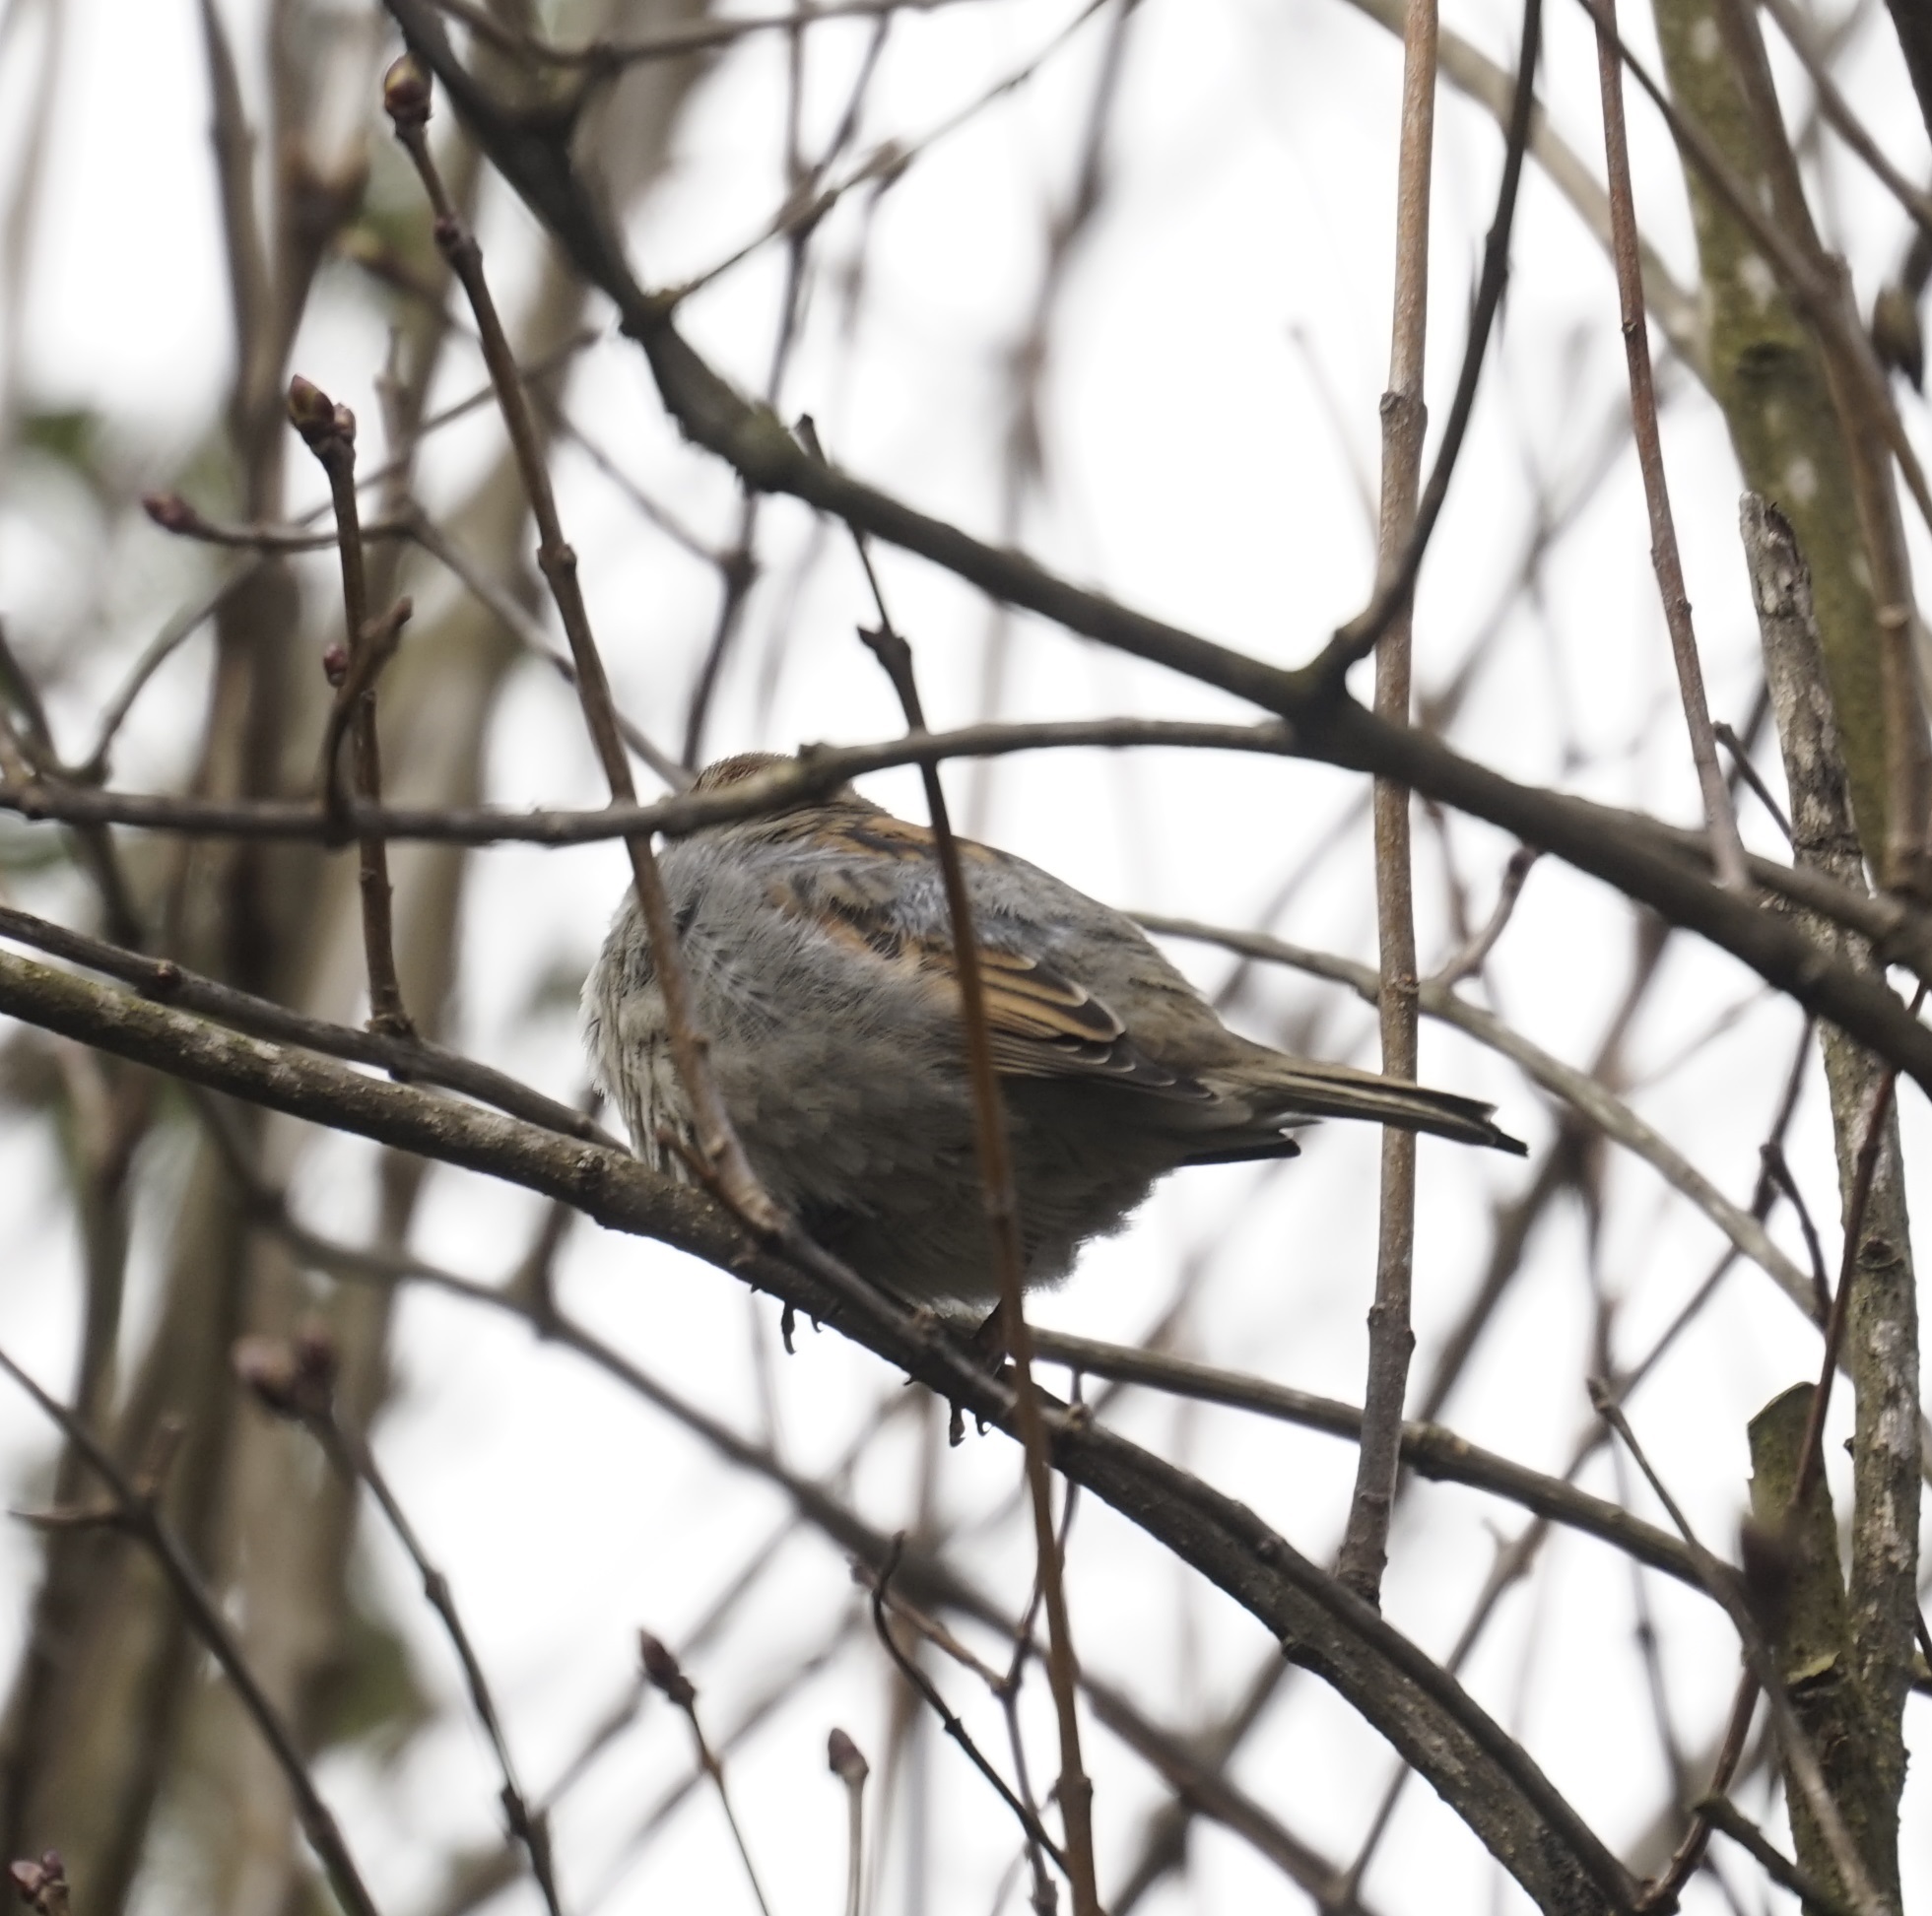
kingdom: Animalia
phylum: Chordata
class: Aves
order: Passeriformes
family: Passeridae
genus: Passer
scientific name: Passer domesticus
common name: House sparrow
